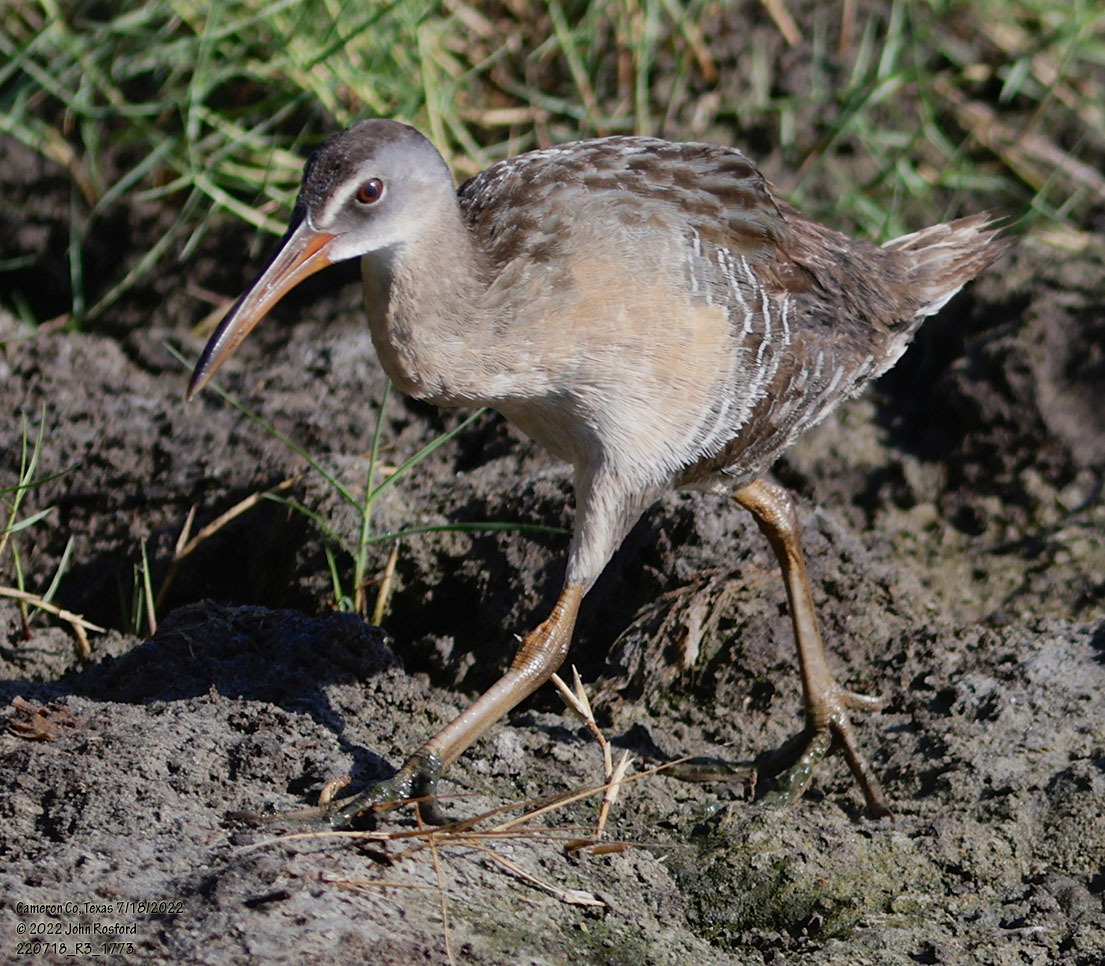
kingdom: Animalia
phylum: Chordata
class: Aves
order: Gruiformes
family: Rallidae
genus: Rallus
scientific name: Rallus crepitans
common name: Clapper rail
